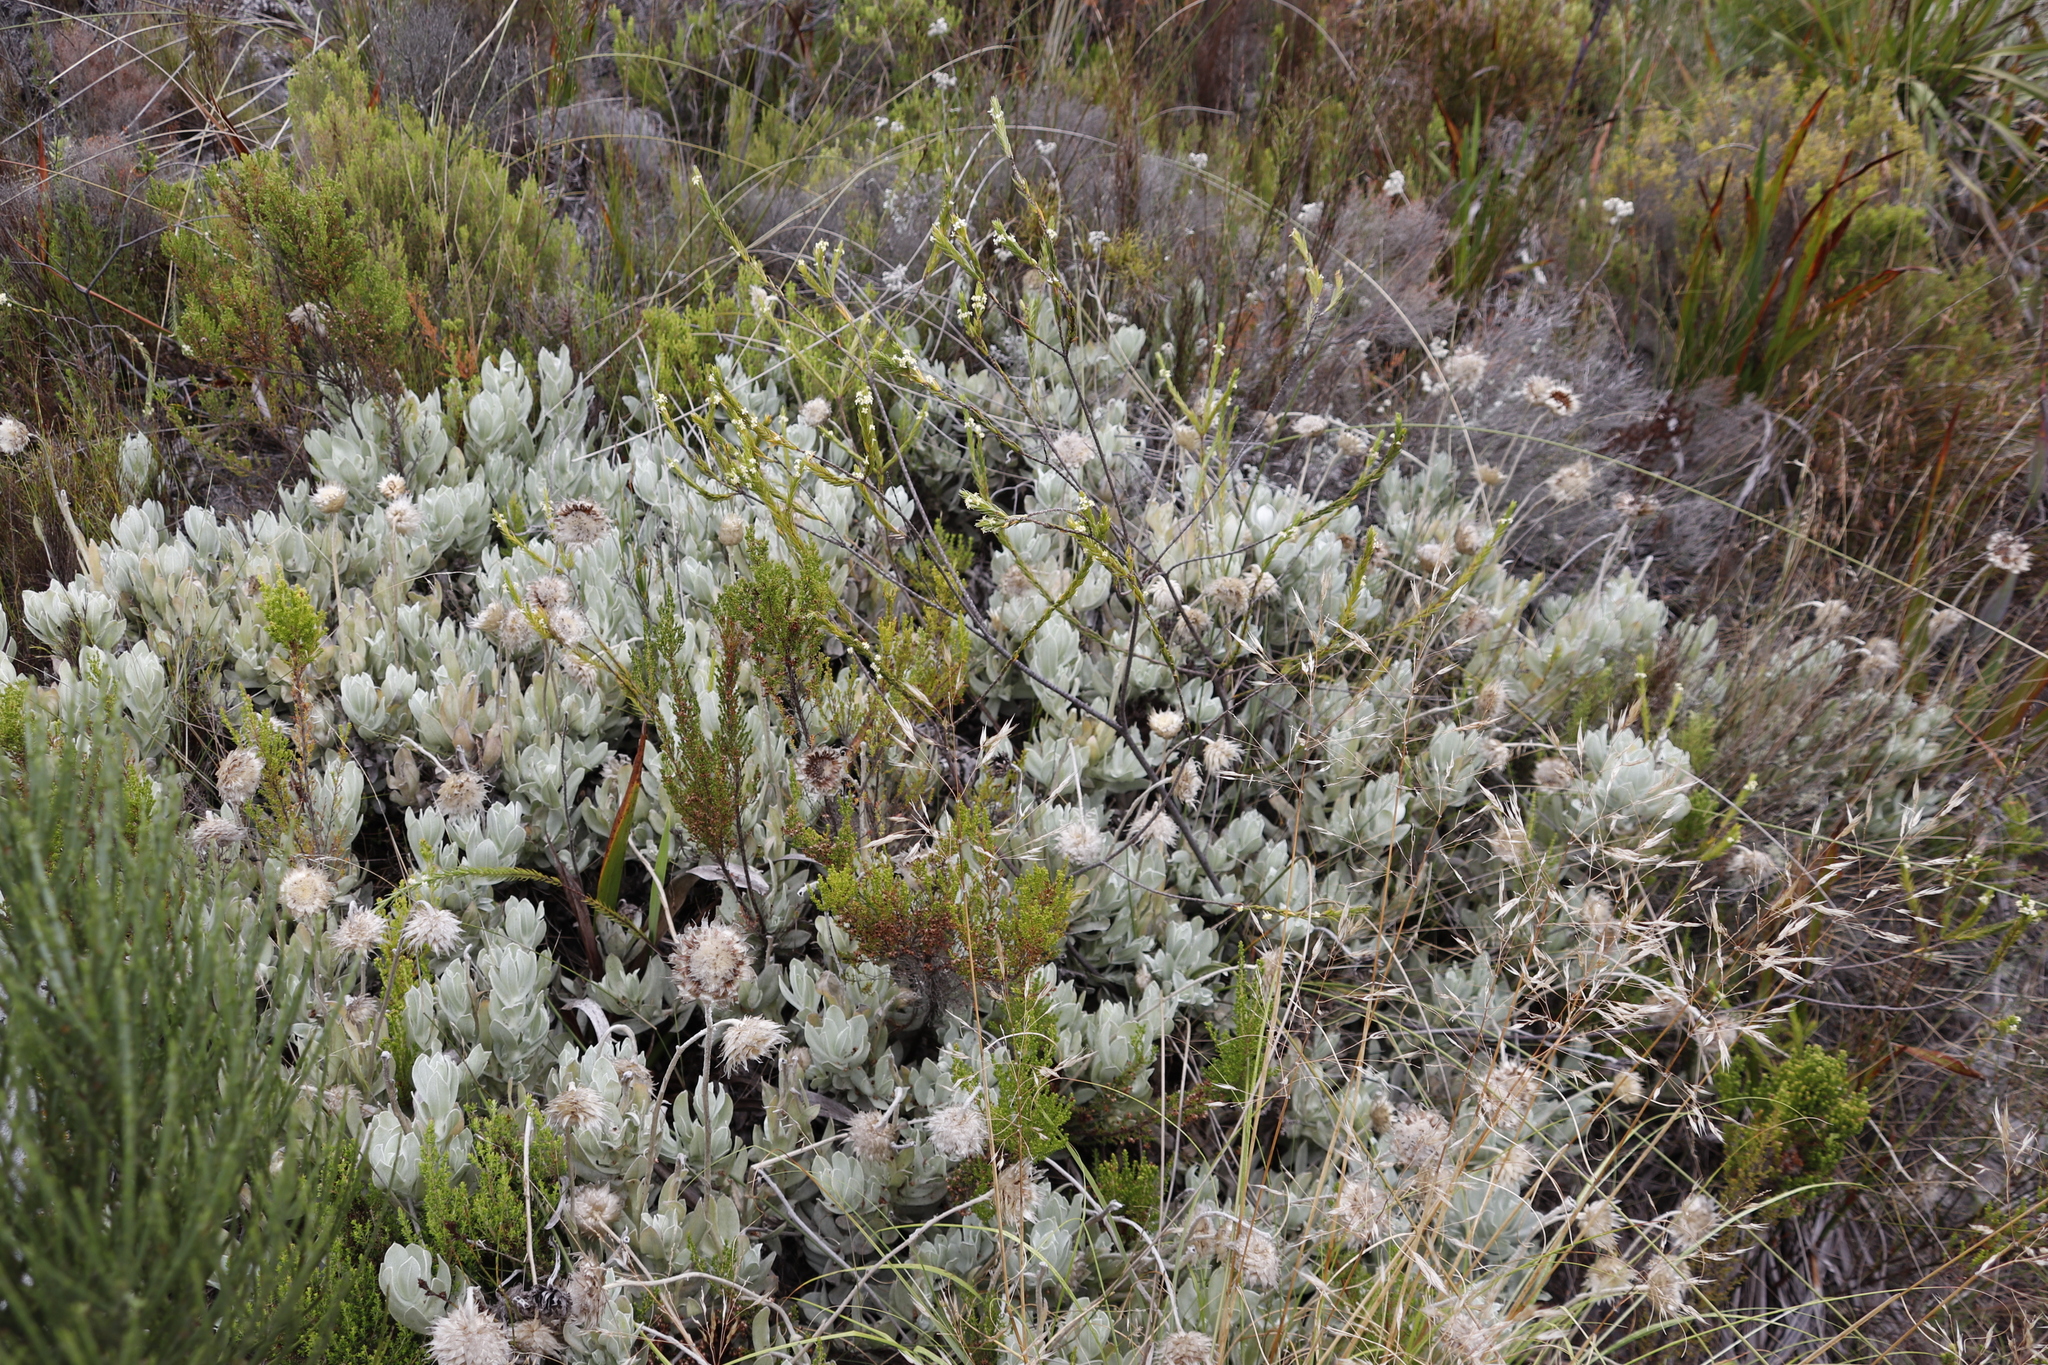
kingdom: Plantae
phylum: Tracheophyta
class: Magnoliopsida
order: Asterales
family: Asteraceae
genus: Syncarpha
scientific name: Syncarpha speciosissima
